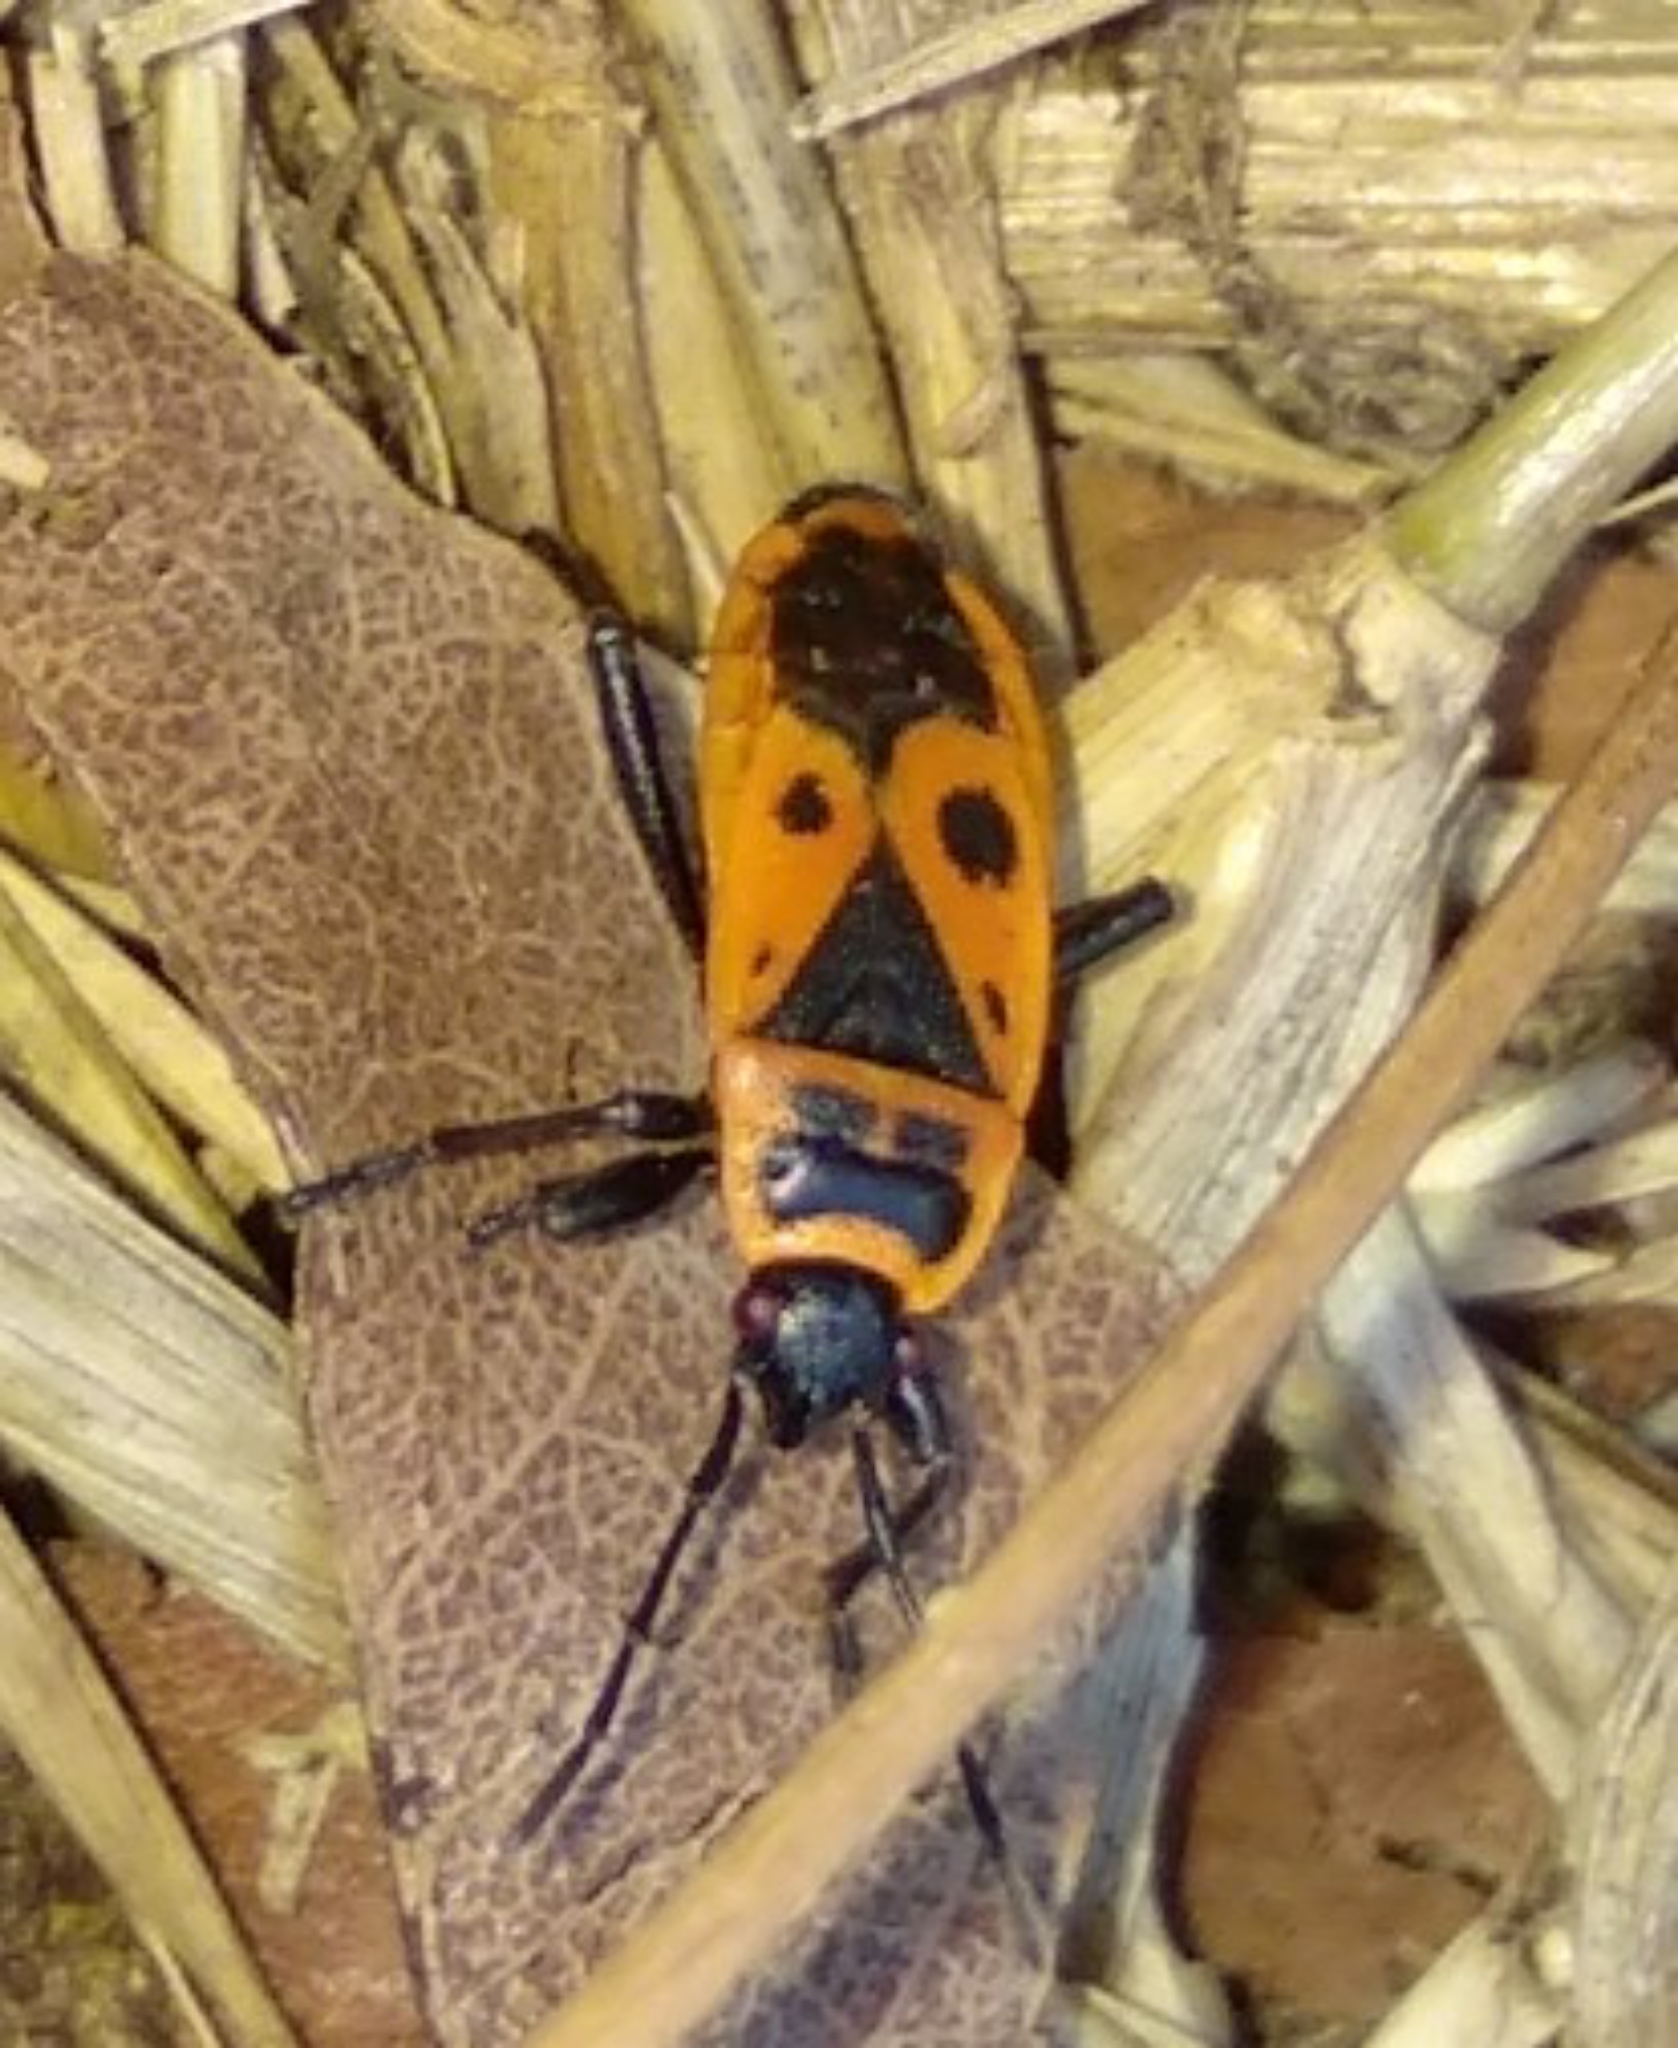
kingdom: Animalia
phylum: Arthropoda
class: Insecta
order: Hemiptera
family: Pyrrhocoridae
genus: Pyrrhocoris
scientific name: Pyrrhocoris apterus
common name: Firebug
